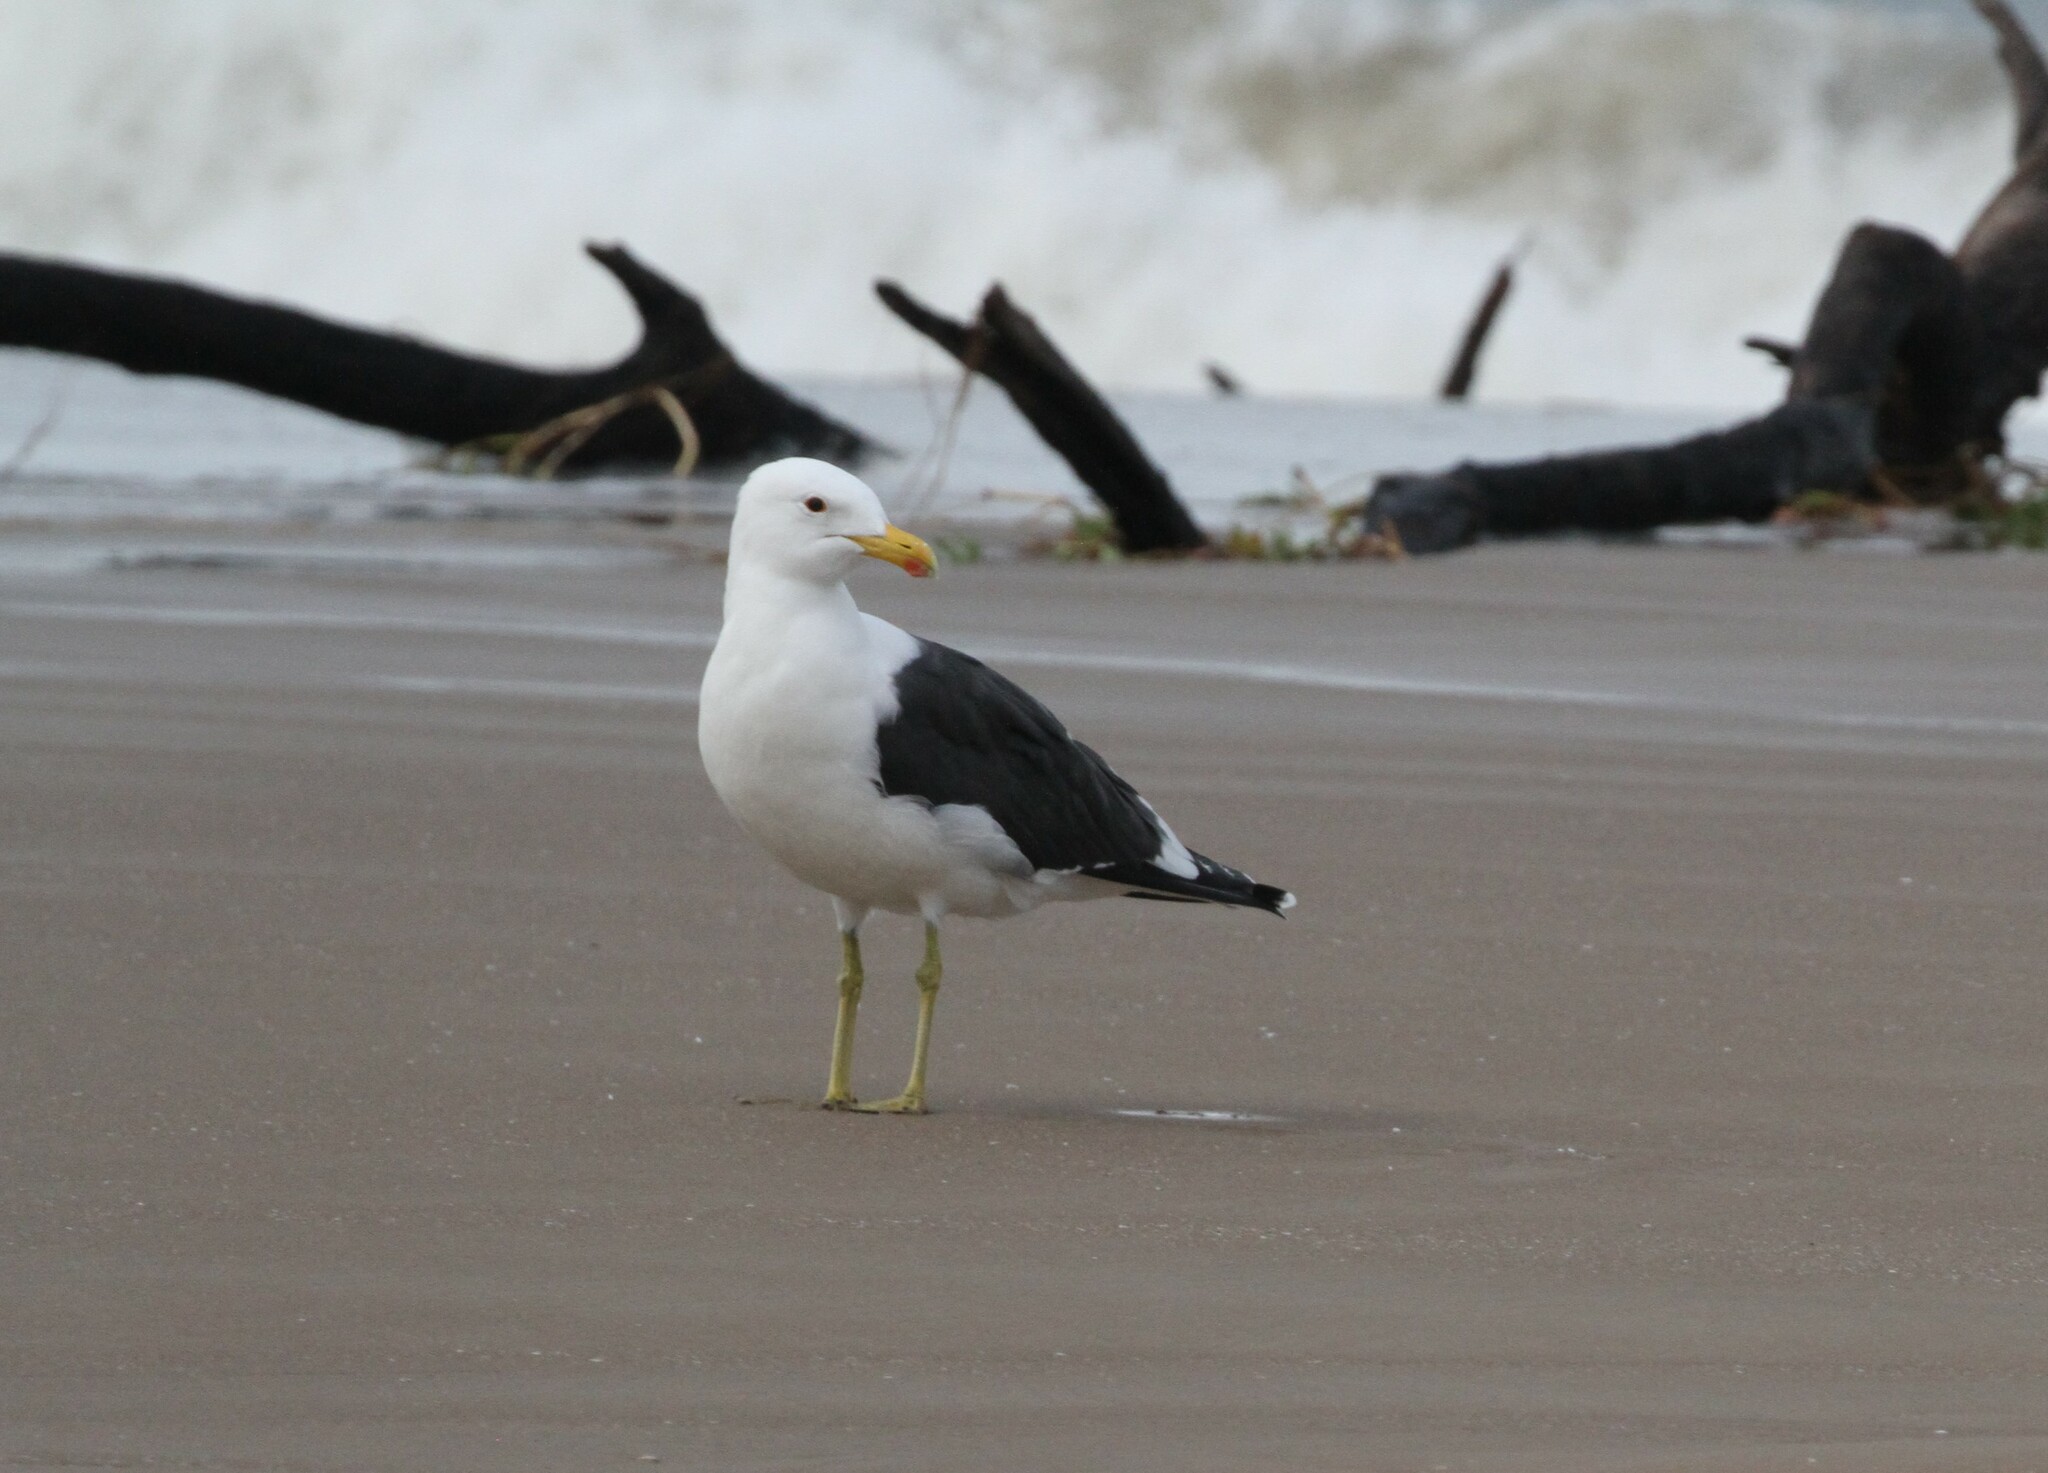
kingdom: Animalia
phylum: Chordata
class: Aves
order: Charadriiformes
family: Laridae
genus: Larus
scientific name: Larus dominicanus
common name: Kelp gull
